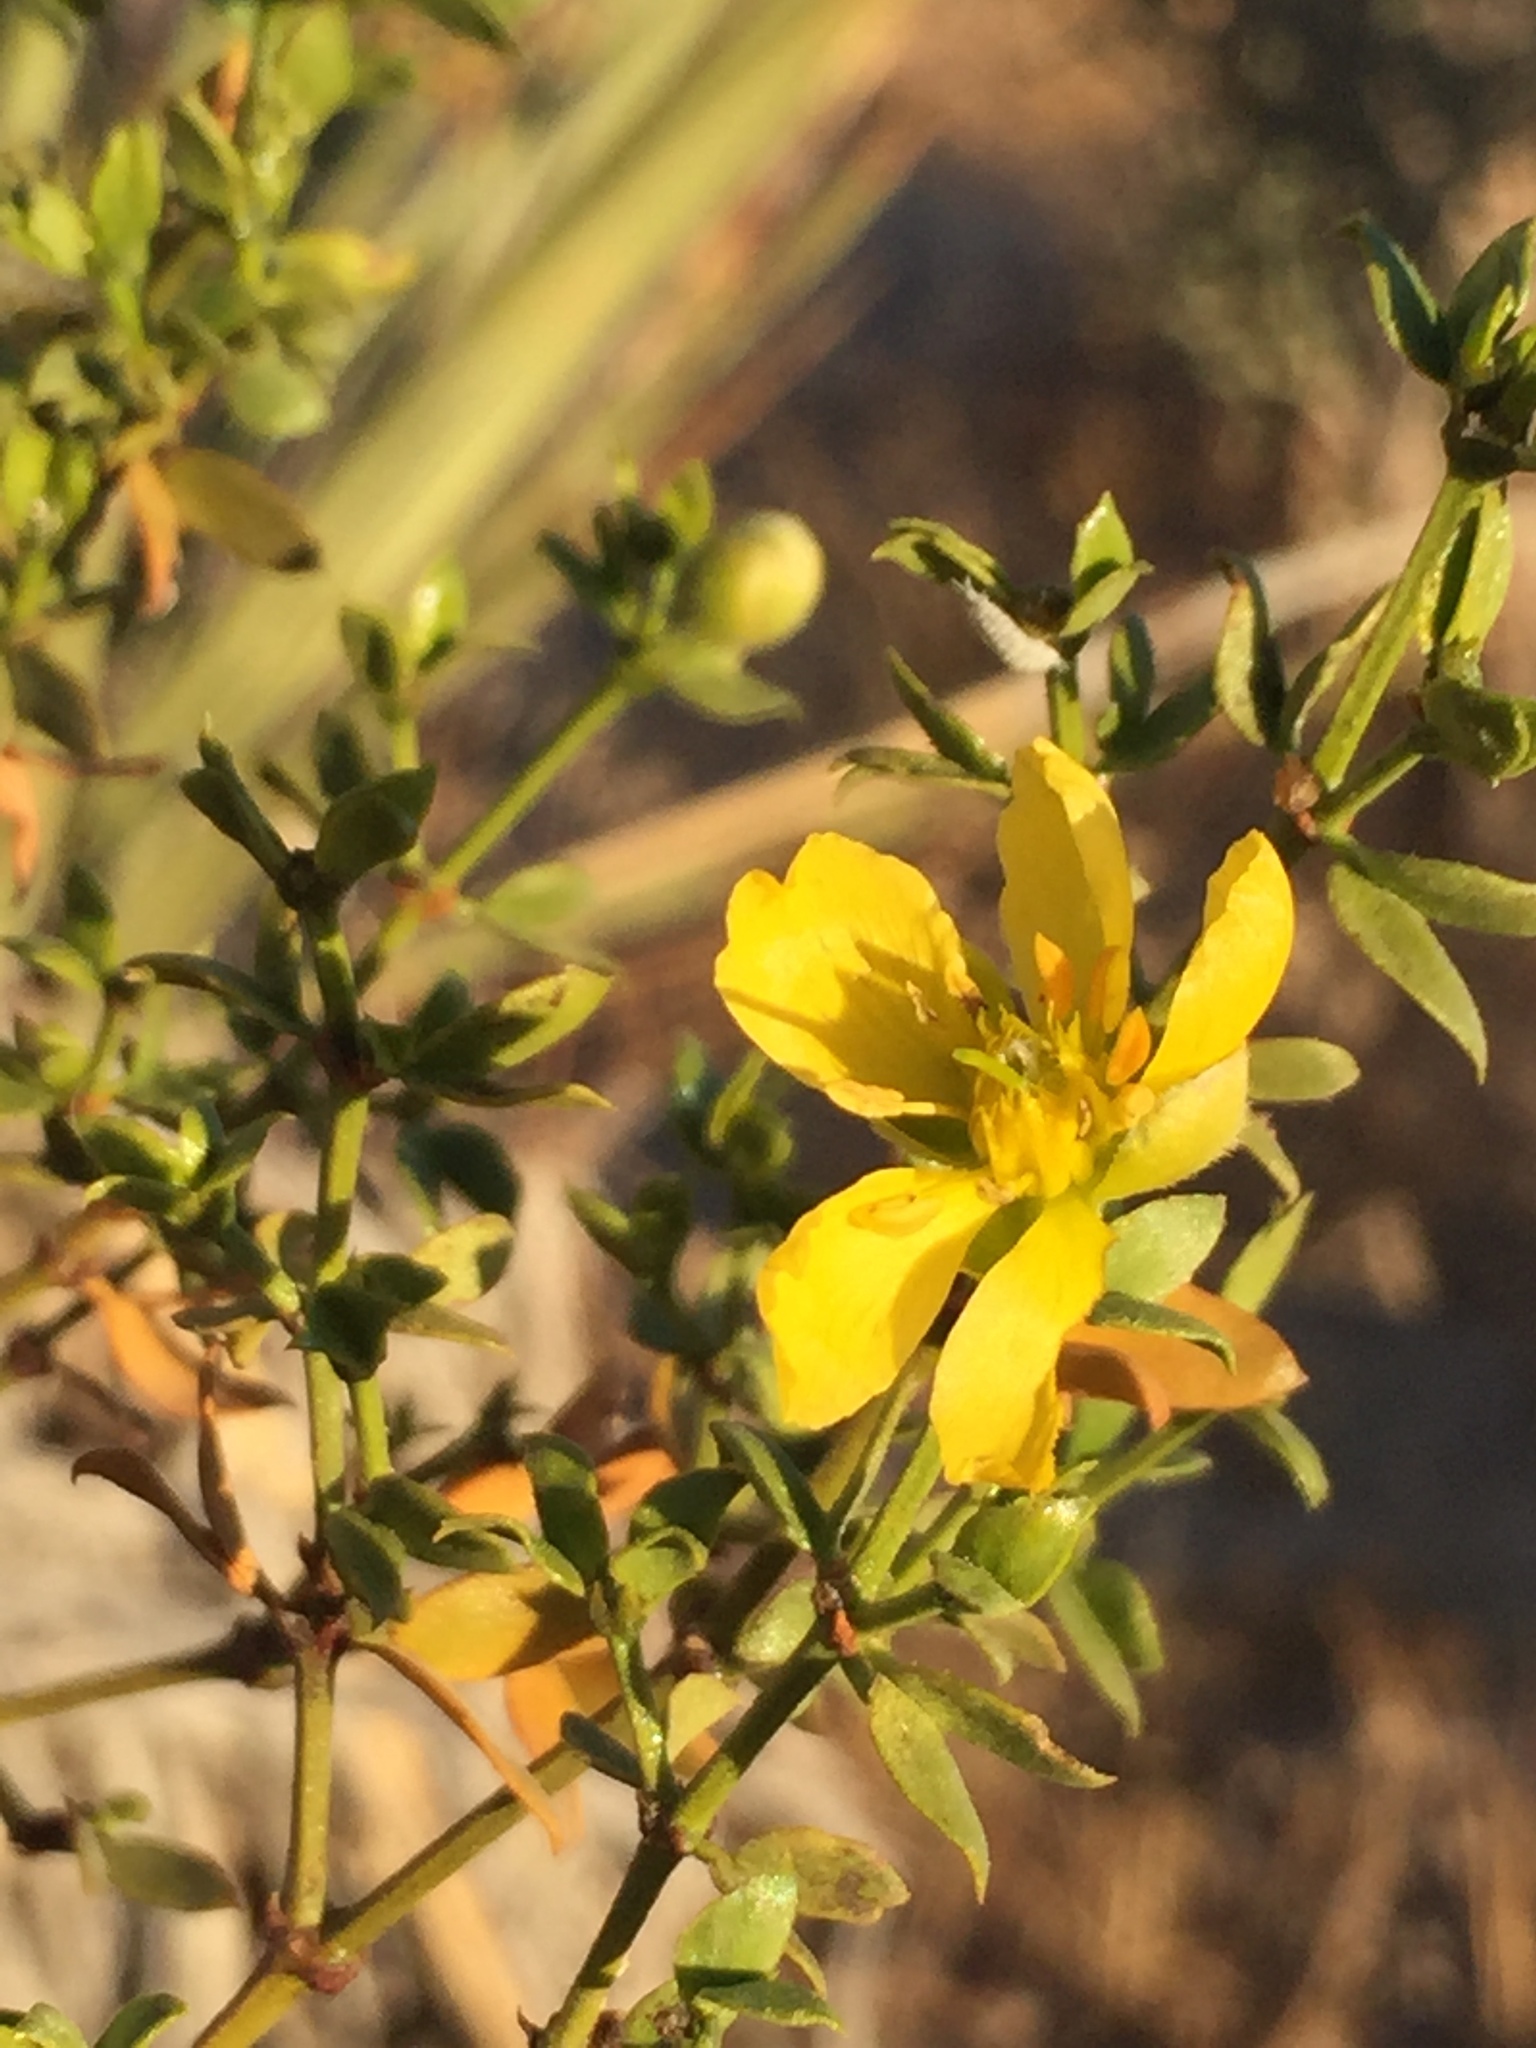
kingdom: Plantae
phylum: Tracheophyta
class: Magnoliopsida
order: Zygophyllales
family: Zygophyllaceae
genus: Larrea
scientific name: Larrea tridentata
